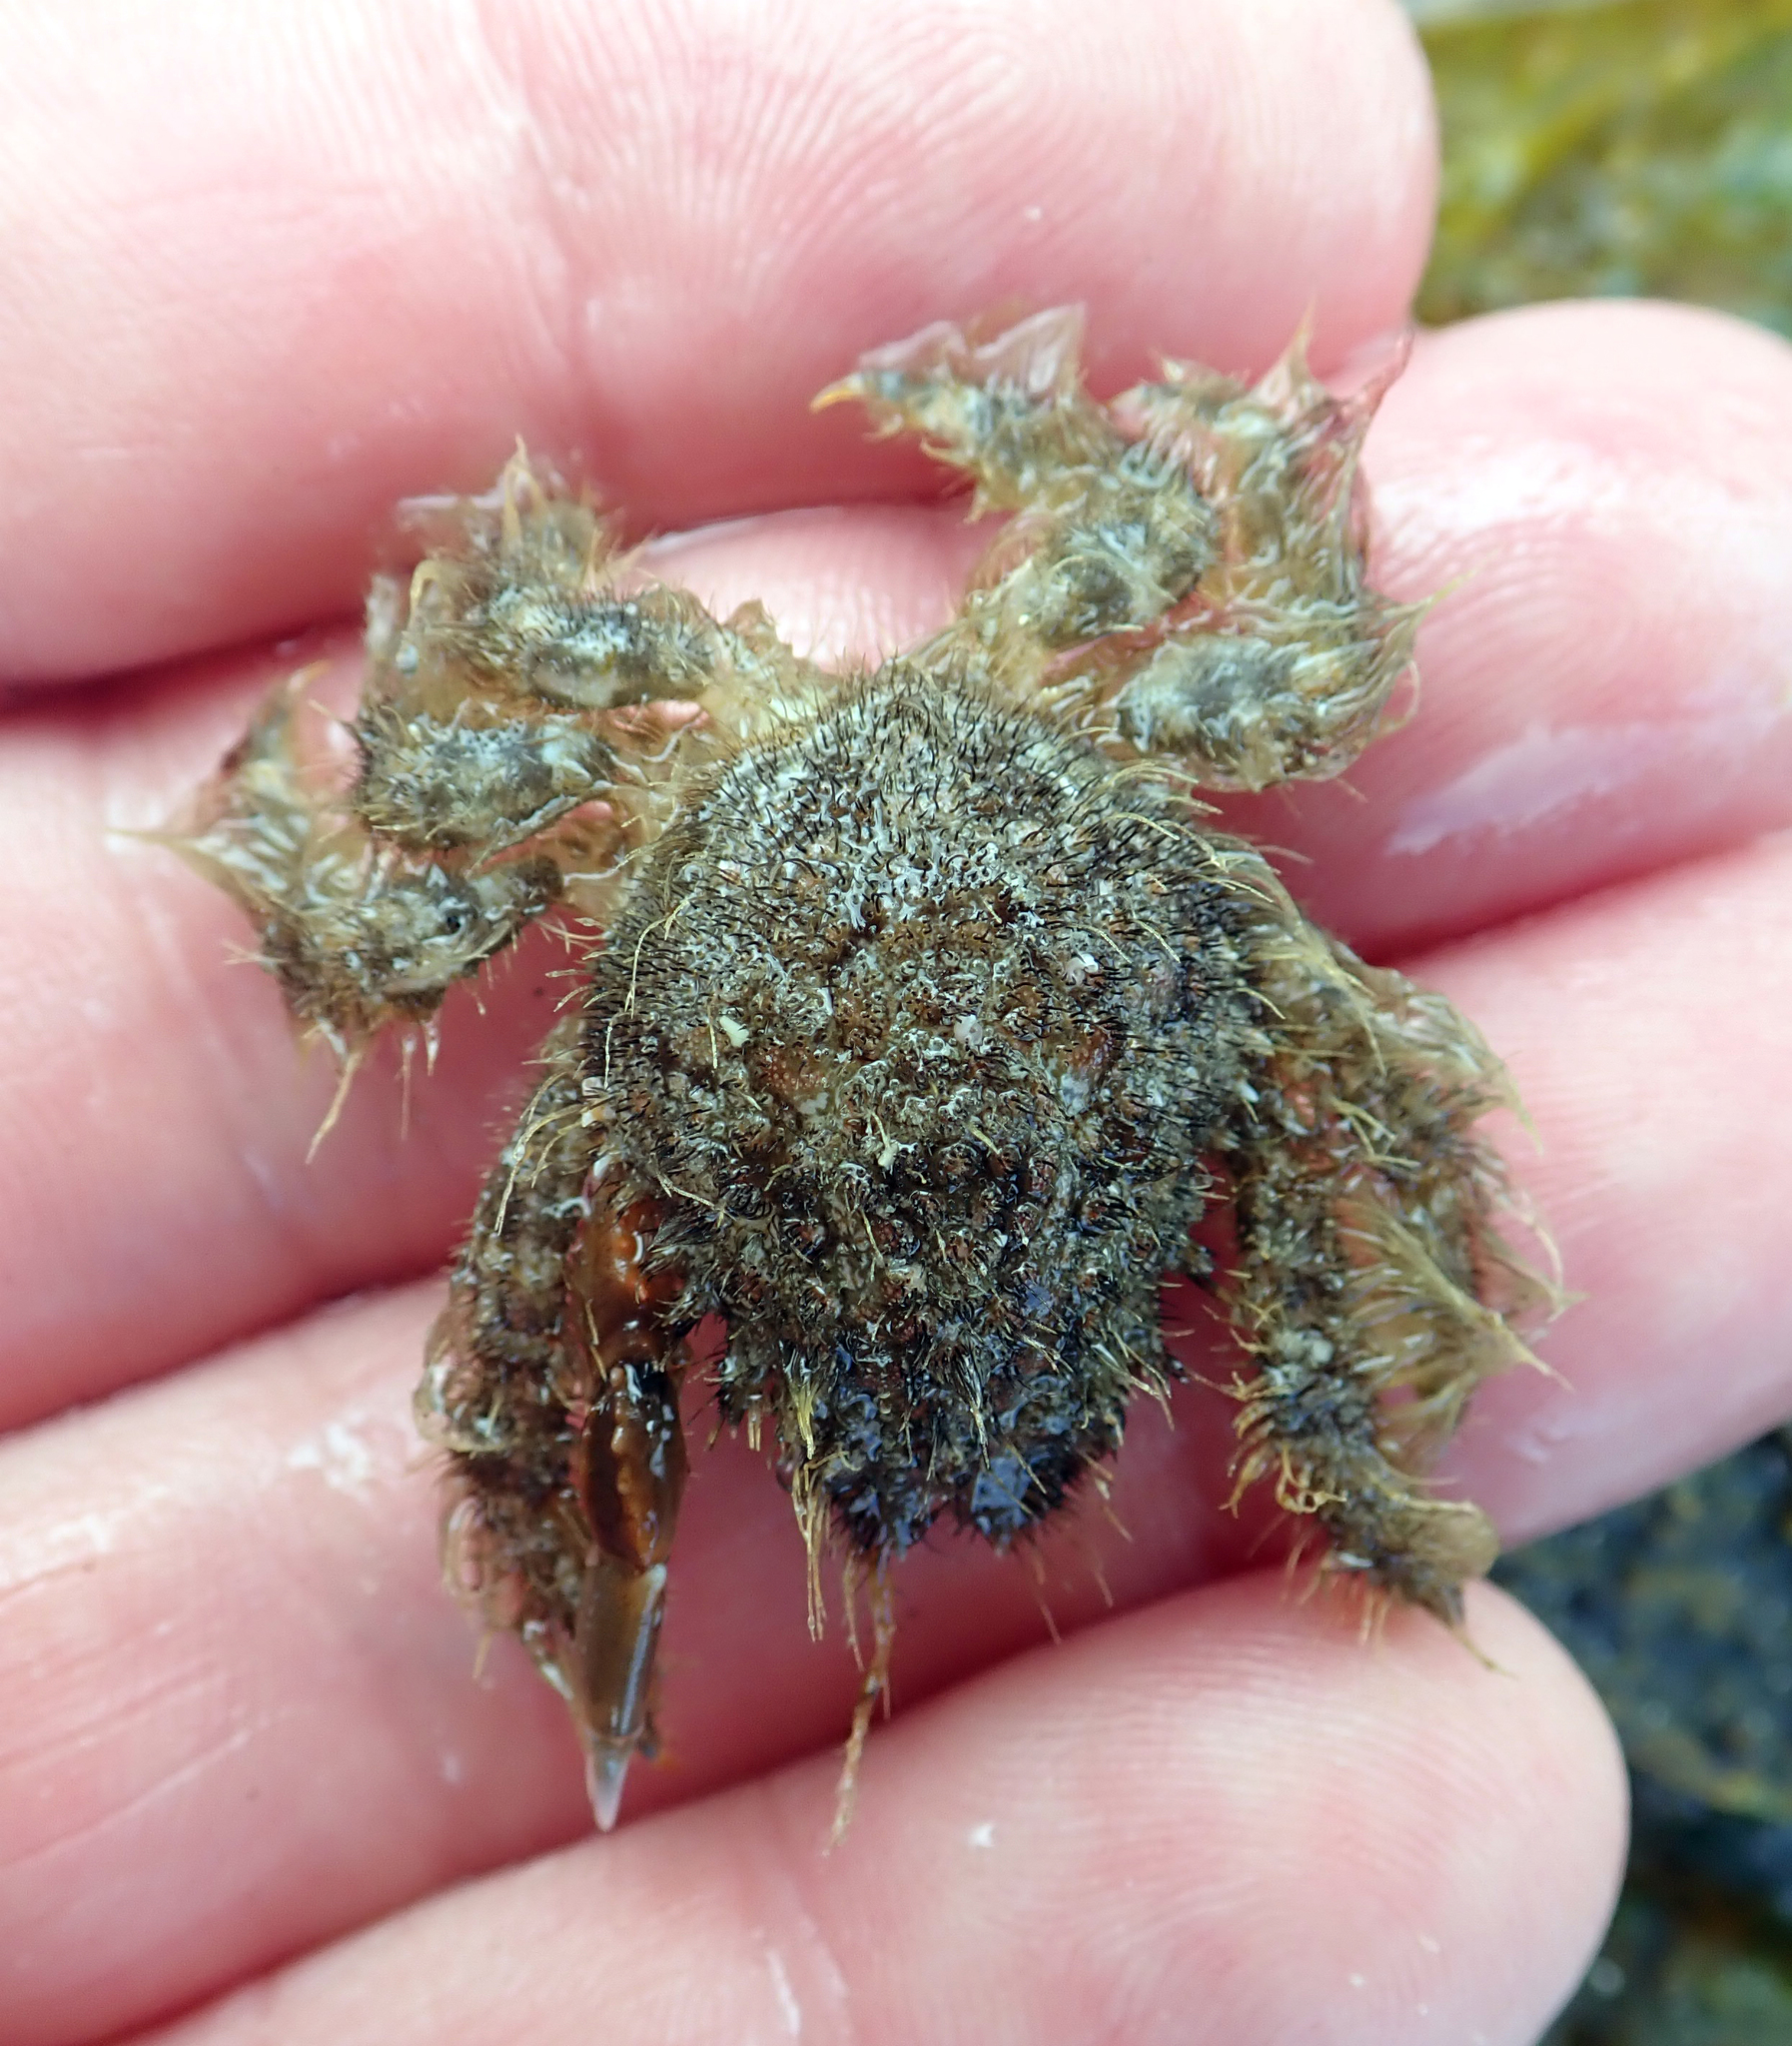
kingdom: Animalia
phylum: Arthropoda
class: Malacostraca
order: Decapoda
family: Majidae
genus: Notomithrax
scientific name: Notomithrax ursus
